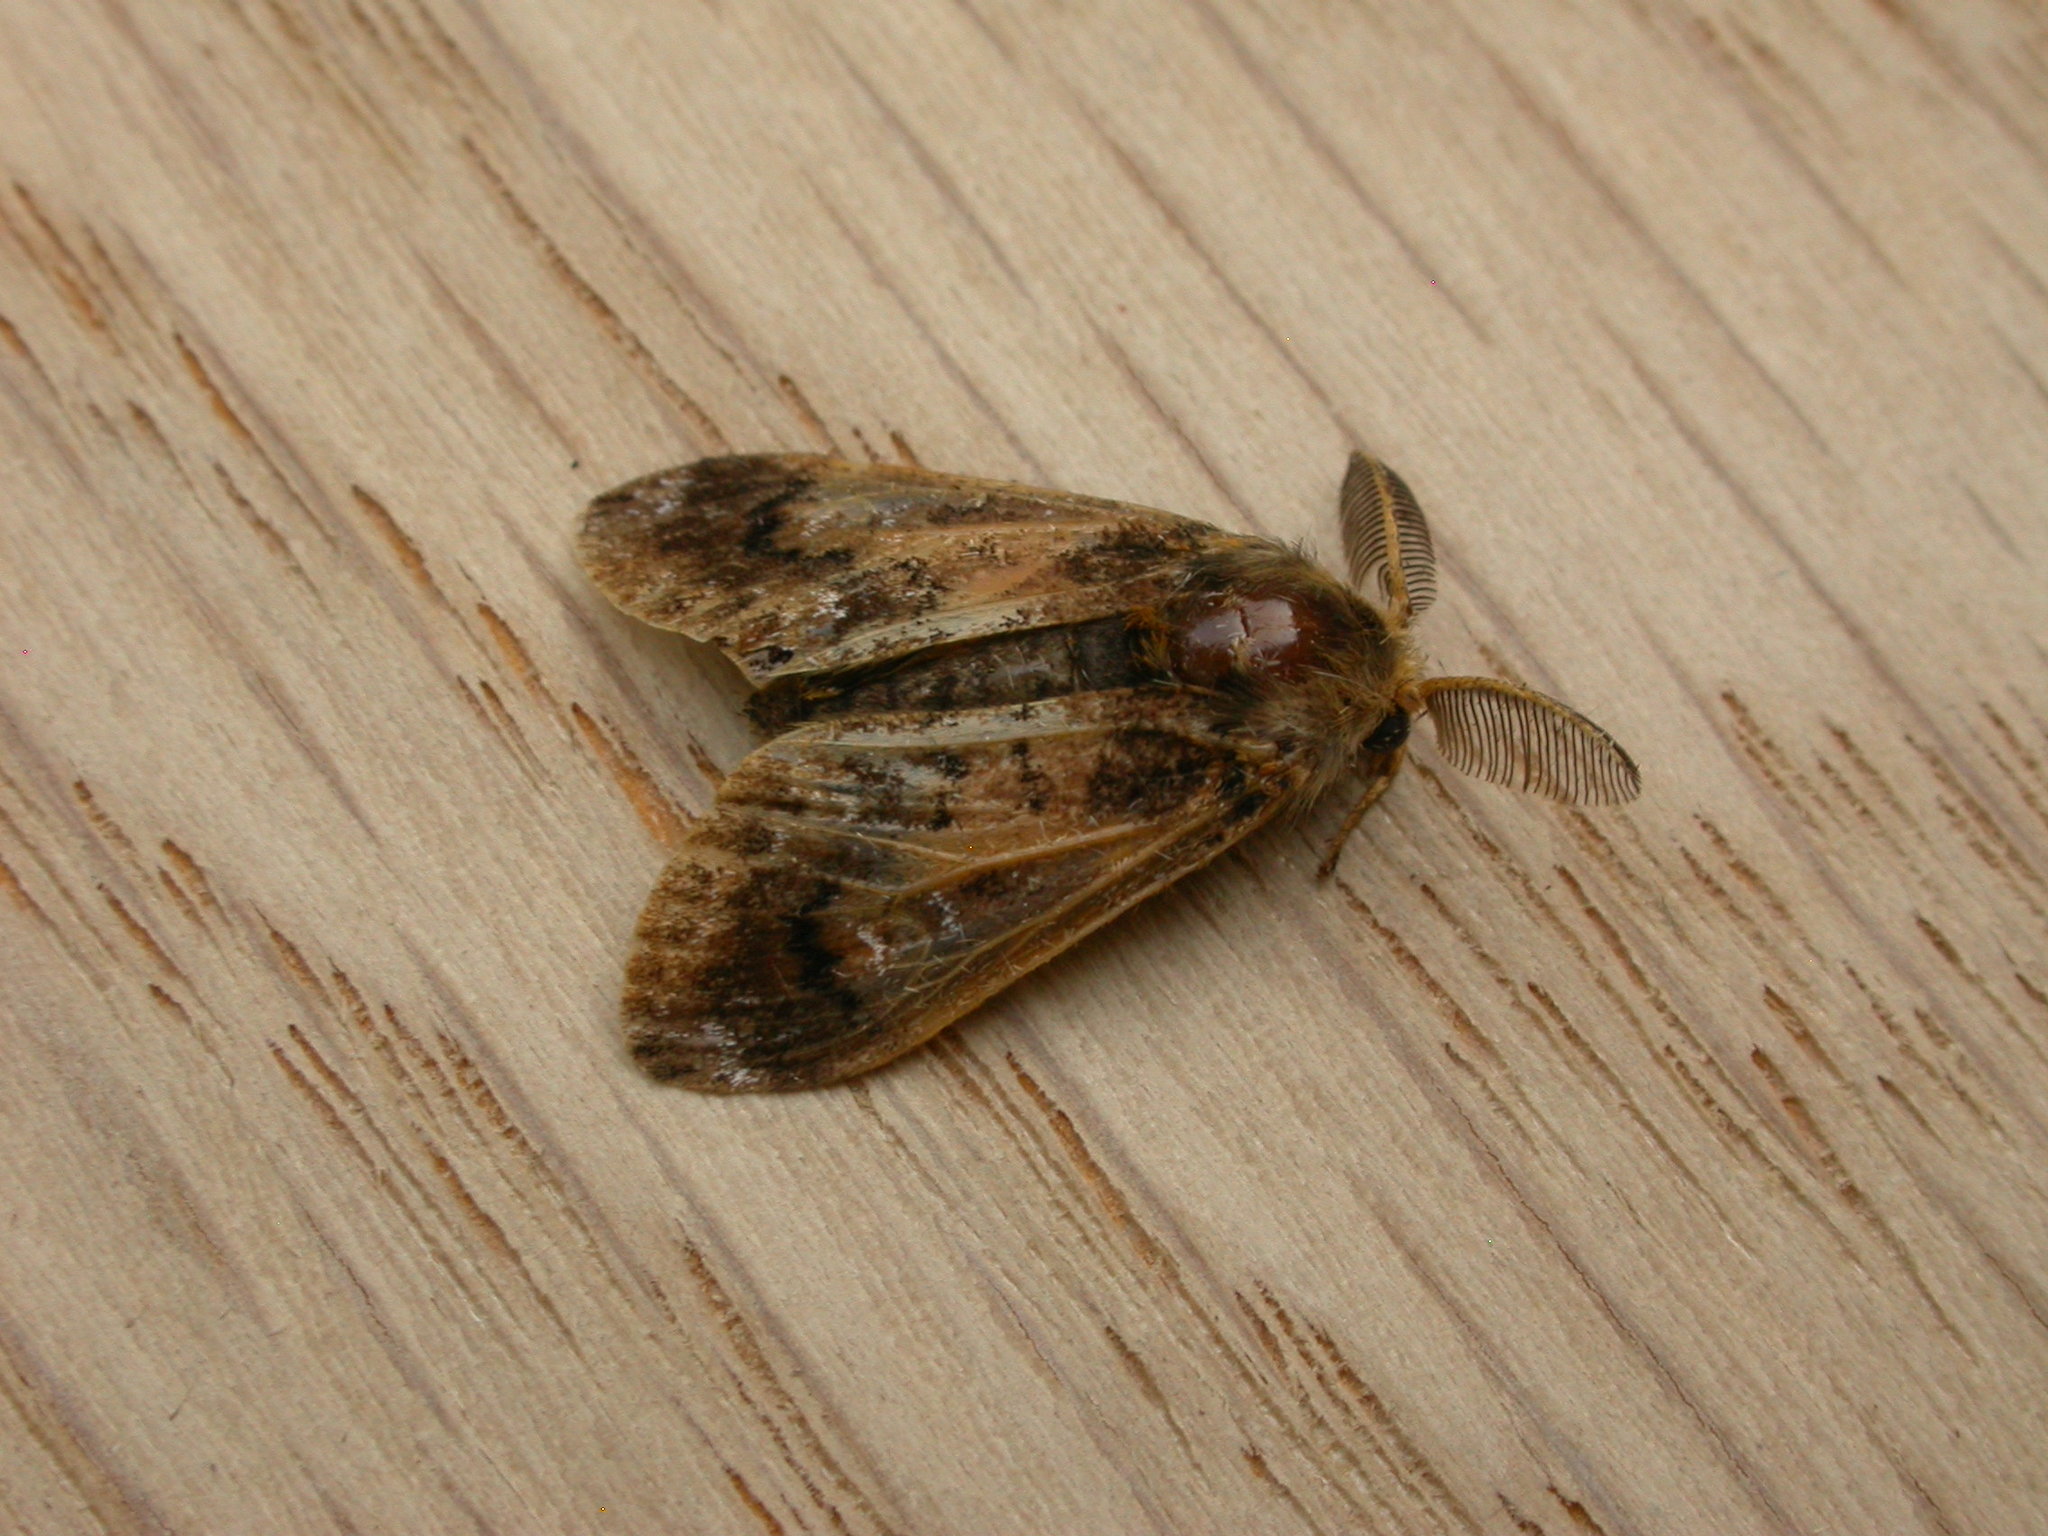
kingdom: Animalia
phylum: Arthropoda
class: Insecta
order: Lepidoptera
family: Erebidae
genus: Orgyia
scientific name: Orgyia
